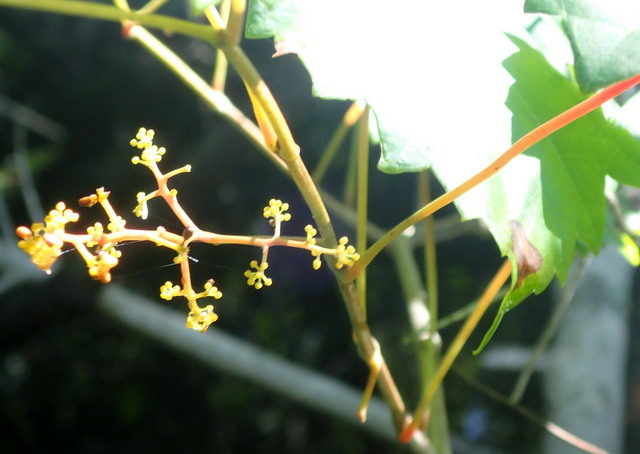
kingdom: Plantae
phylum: Tracheophyta
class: Magnoliopsida
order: Vitales
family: Vitaceae
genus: Vitis
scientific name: Vitis rotundifolia
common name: Muscadine grape
